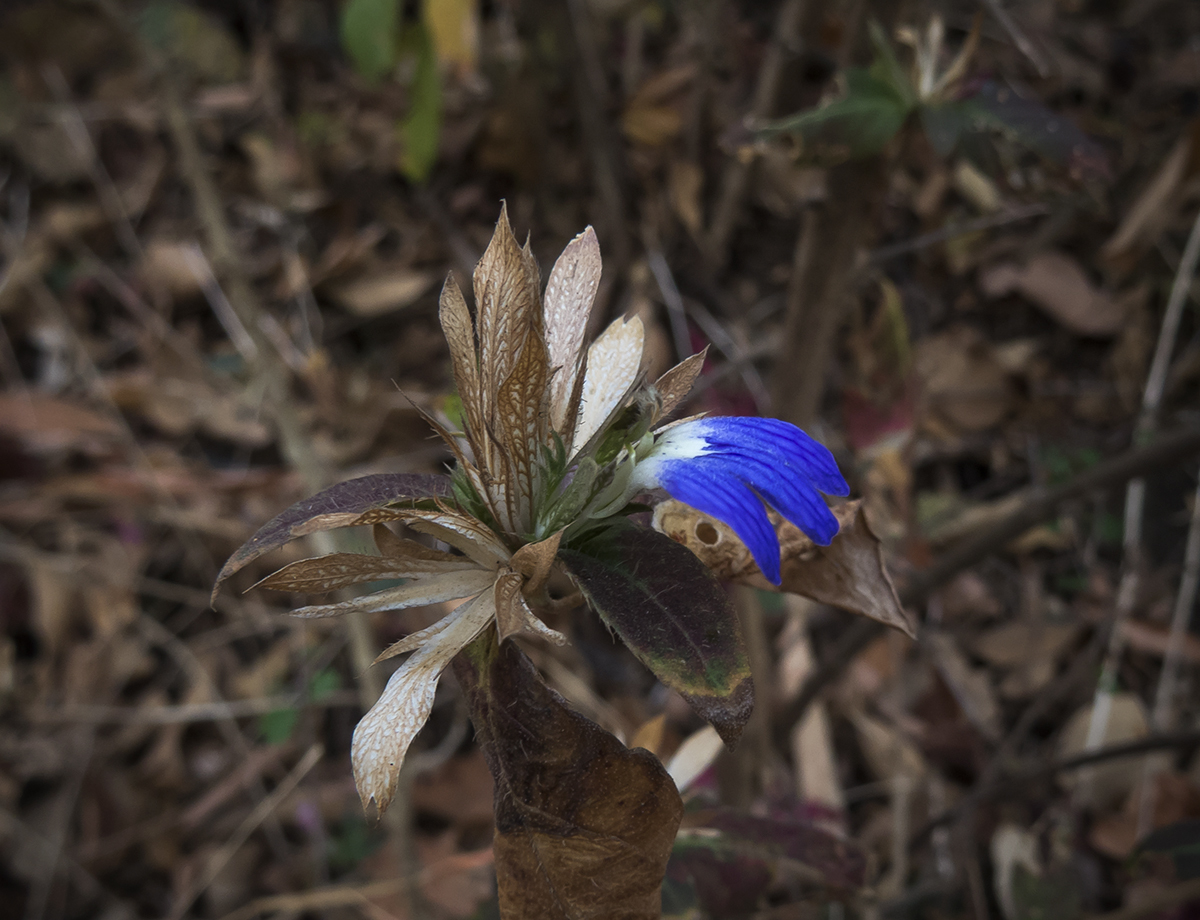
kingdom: Plantae
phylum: Tracheophyta
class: Magnoliopsida
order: Lamiales
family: Acanthaceae
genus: Cynarospermum
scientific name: Cynarospermum asperrimum
